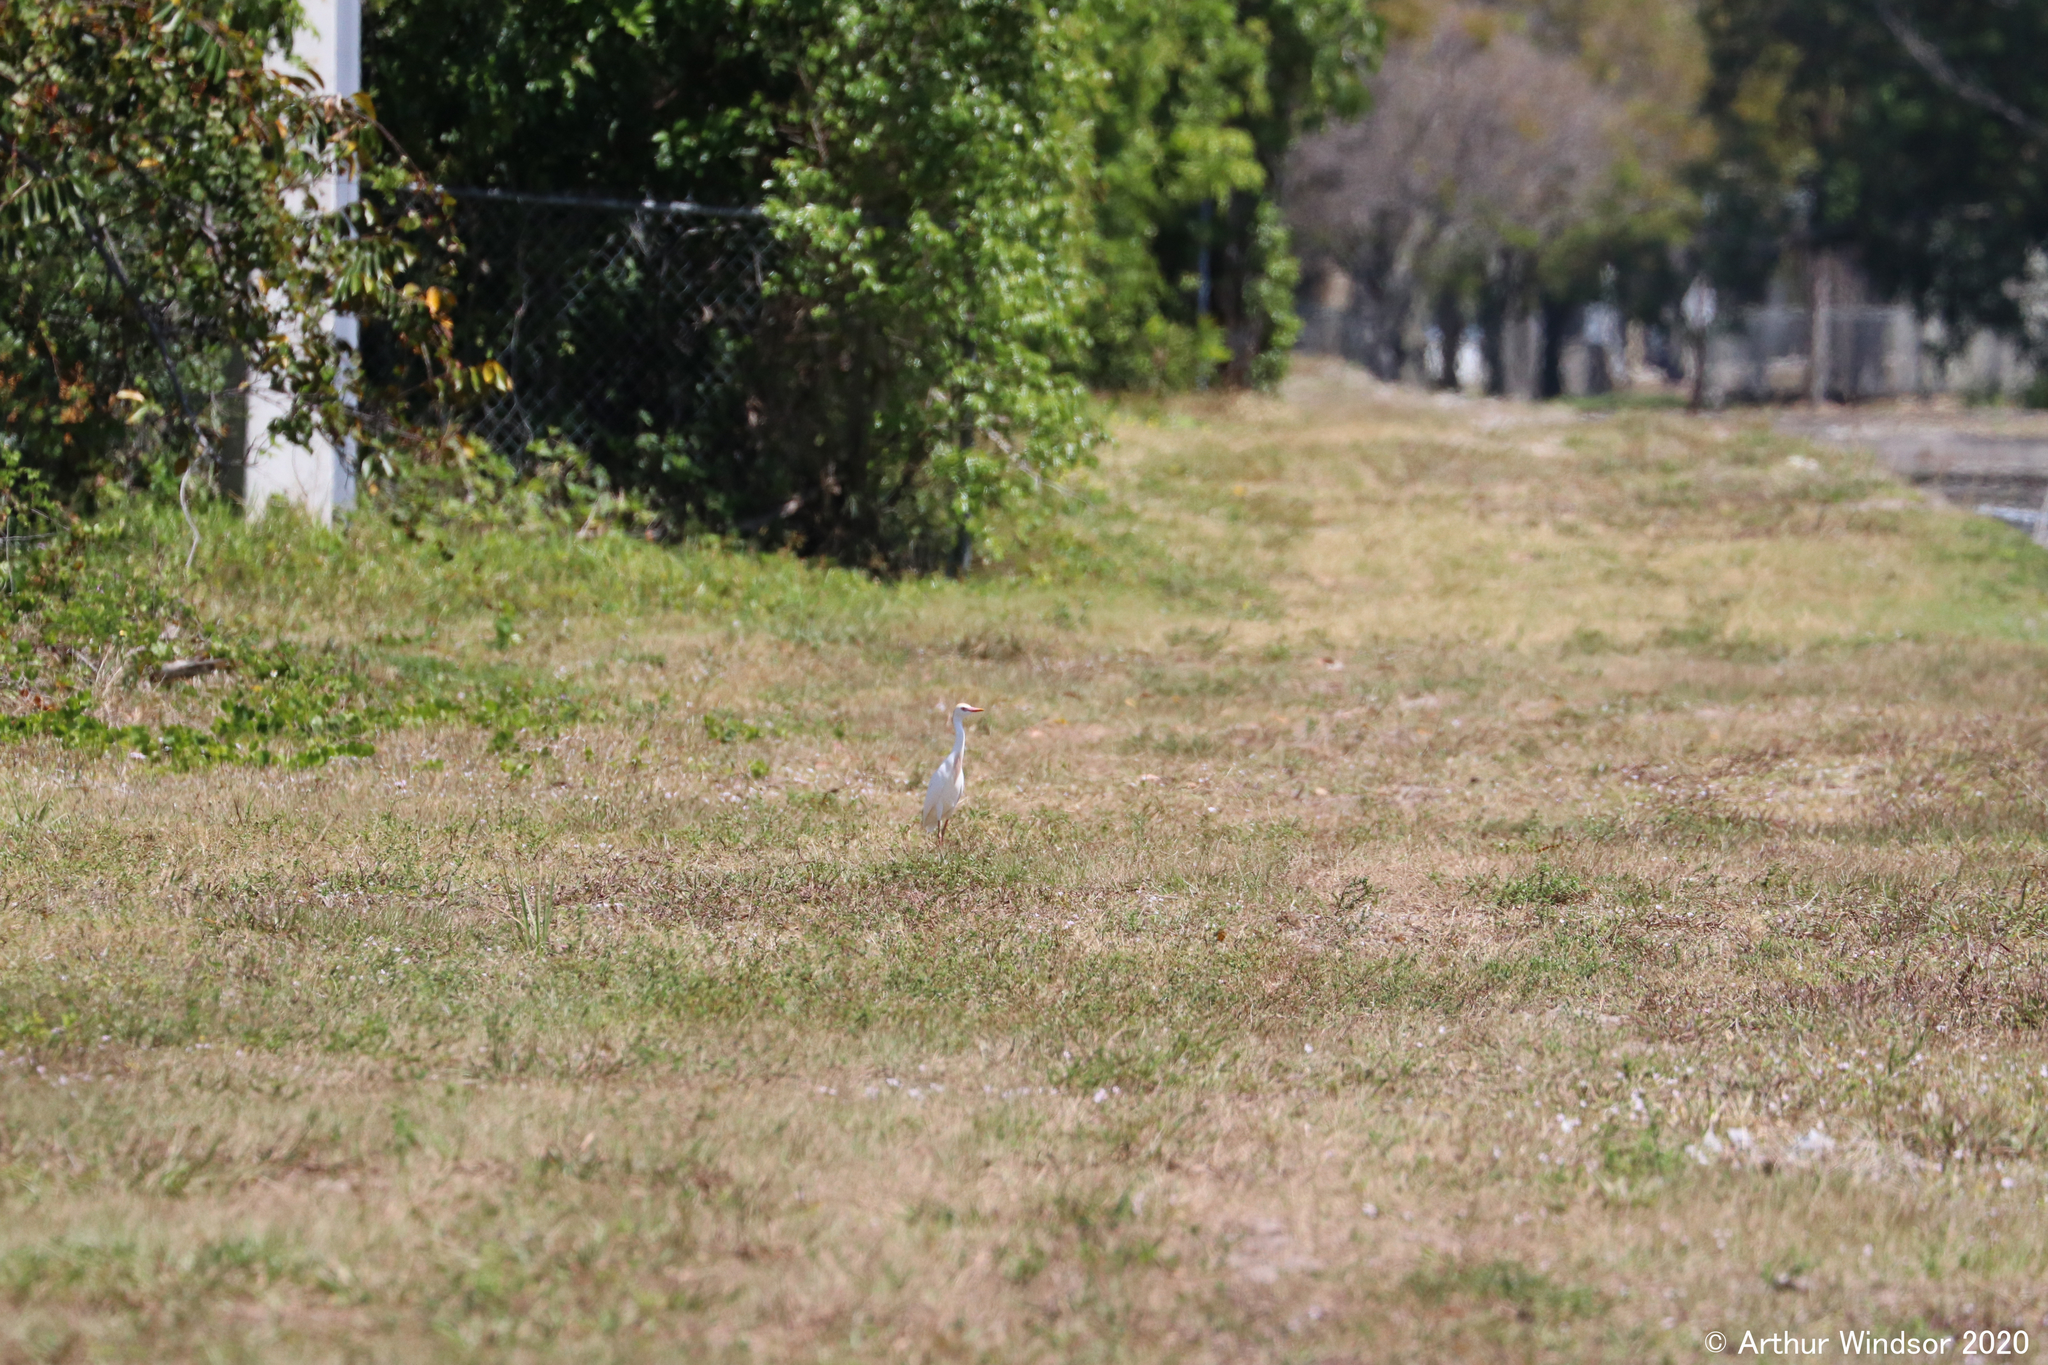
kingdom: Animalia
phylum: Chordata
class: Aves
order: Pelecaniformes
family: Ardeidae
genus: Bubulcus
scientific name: Bubulcus ibis
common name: Cattle egret
